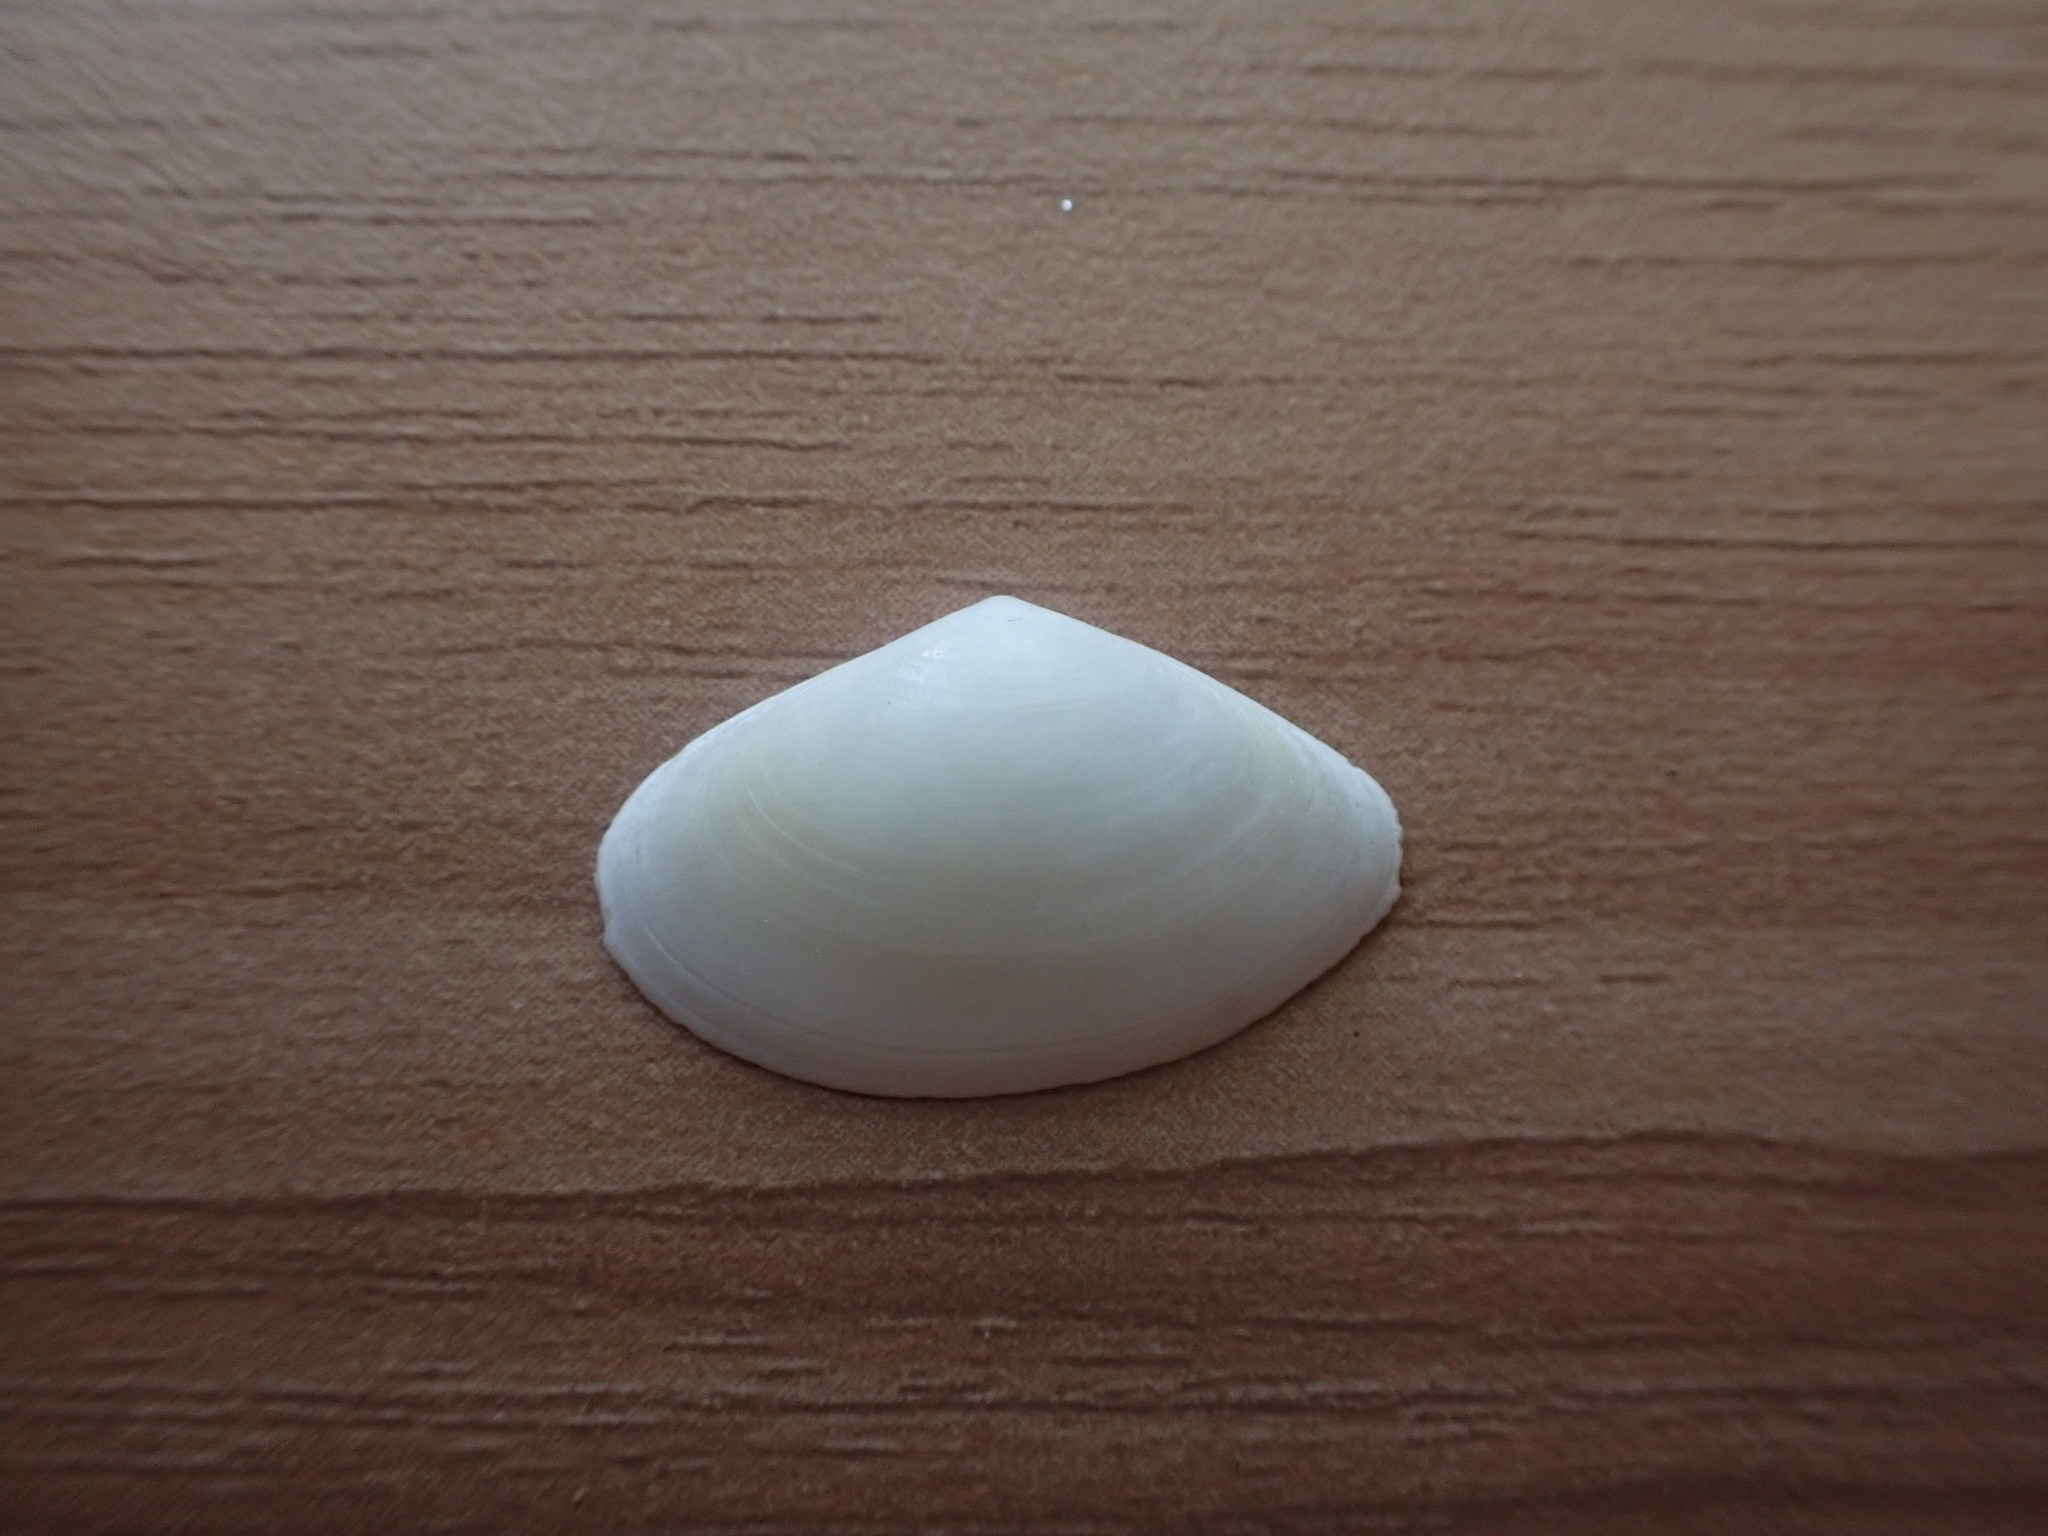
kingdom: Animalia
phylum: Mollusca
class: Bivalvia
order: Venerida
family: Mactridae
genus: Scalpomactra
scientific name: Scalpomactra scalpellum
